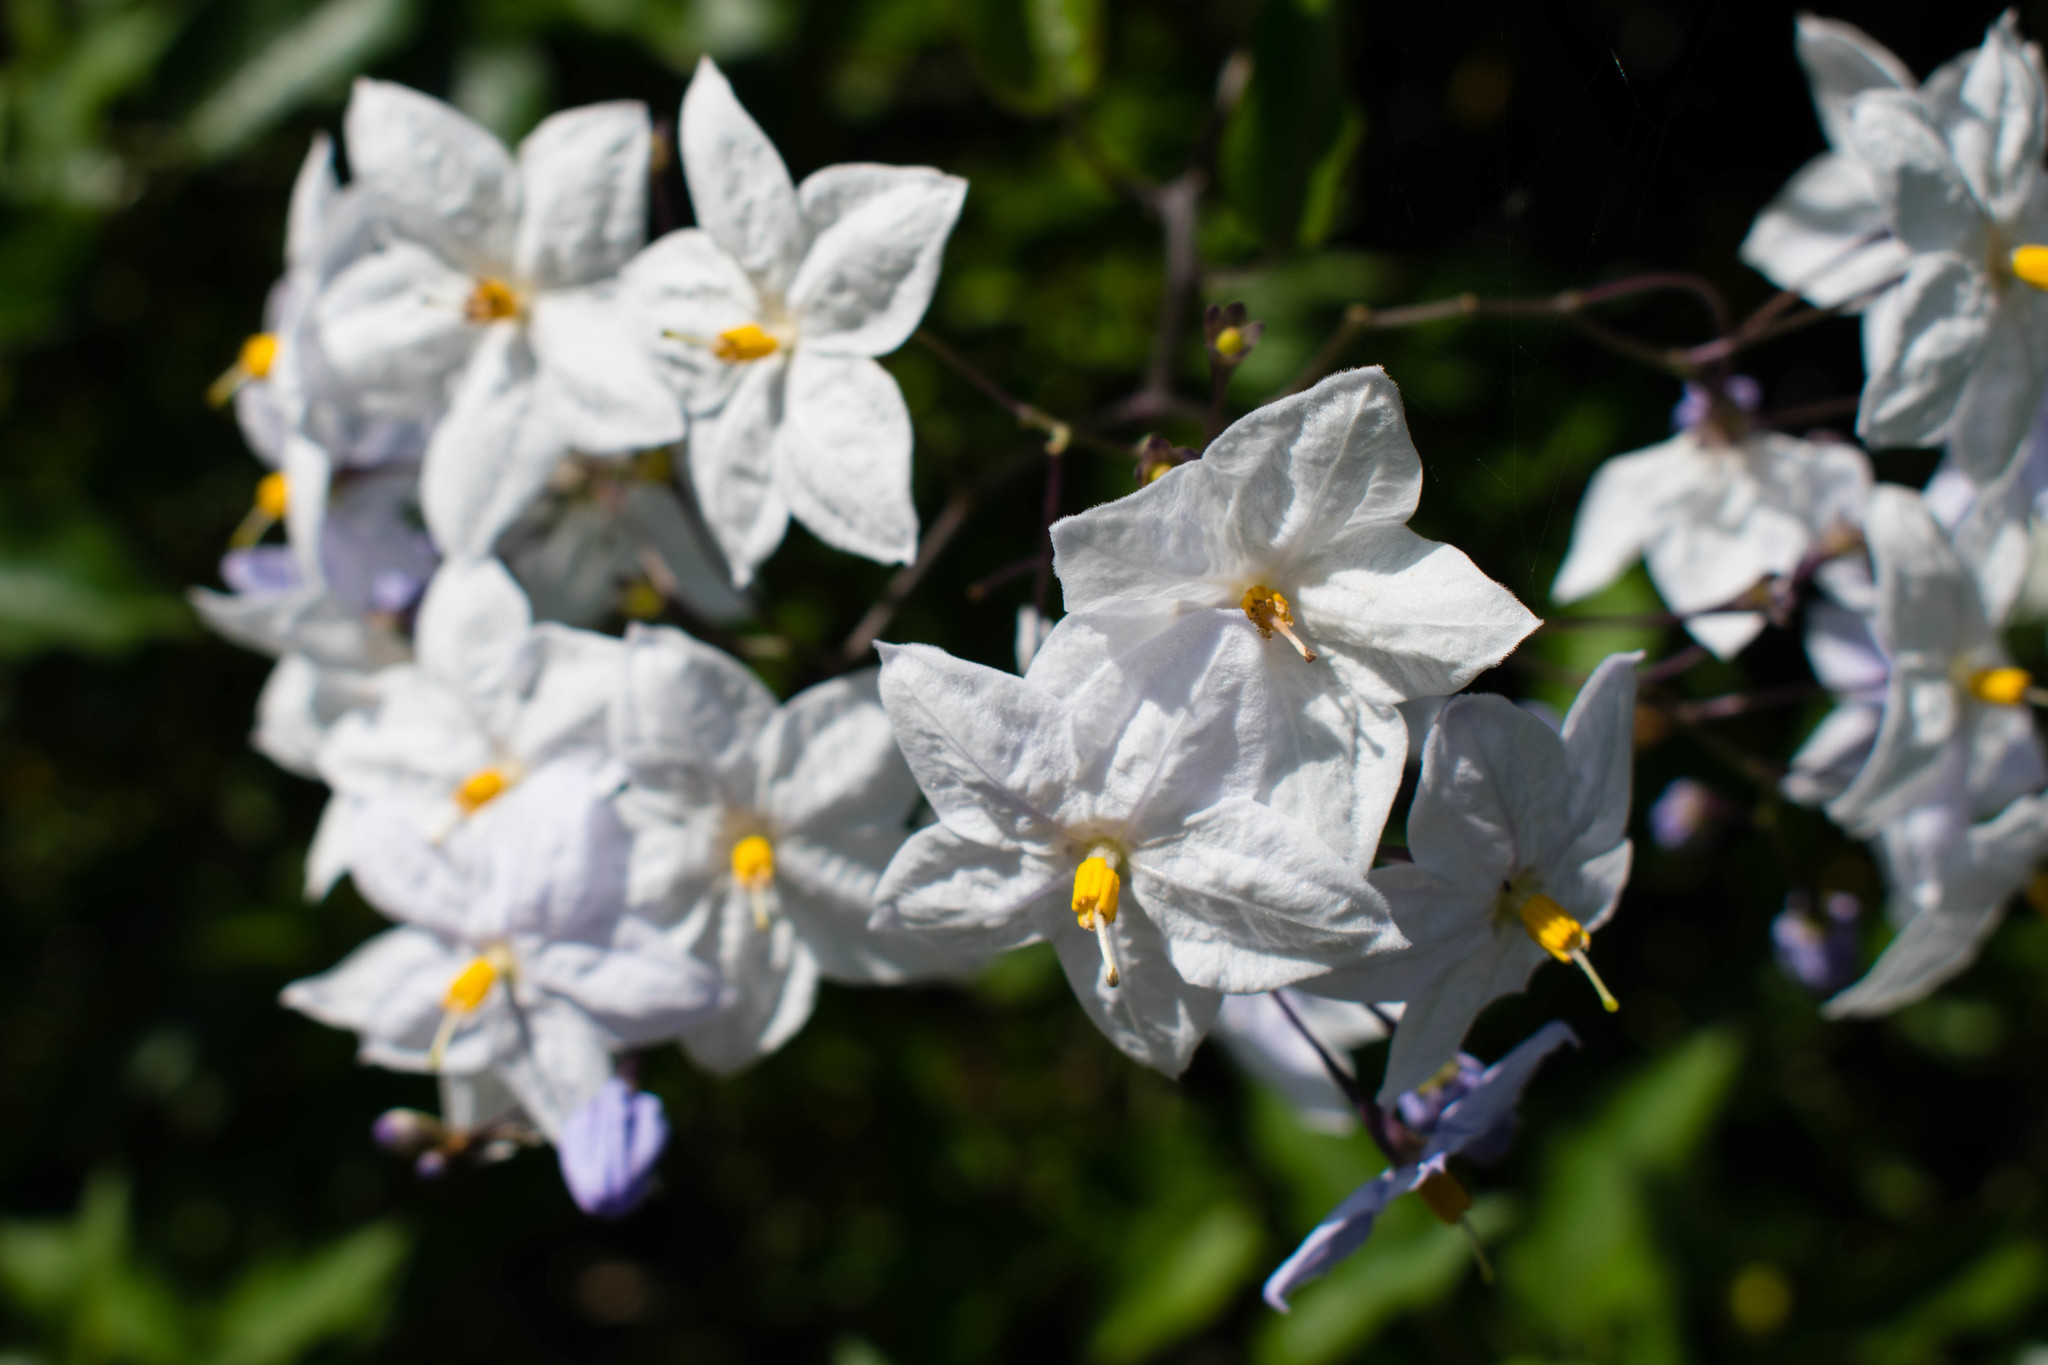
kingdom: Plantae
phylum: Tracheophyta
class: Magnoliopsida
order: Solanales
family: Solanaceae
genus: Solanum
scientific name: Solanum laxum
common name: Nightshade
